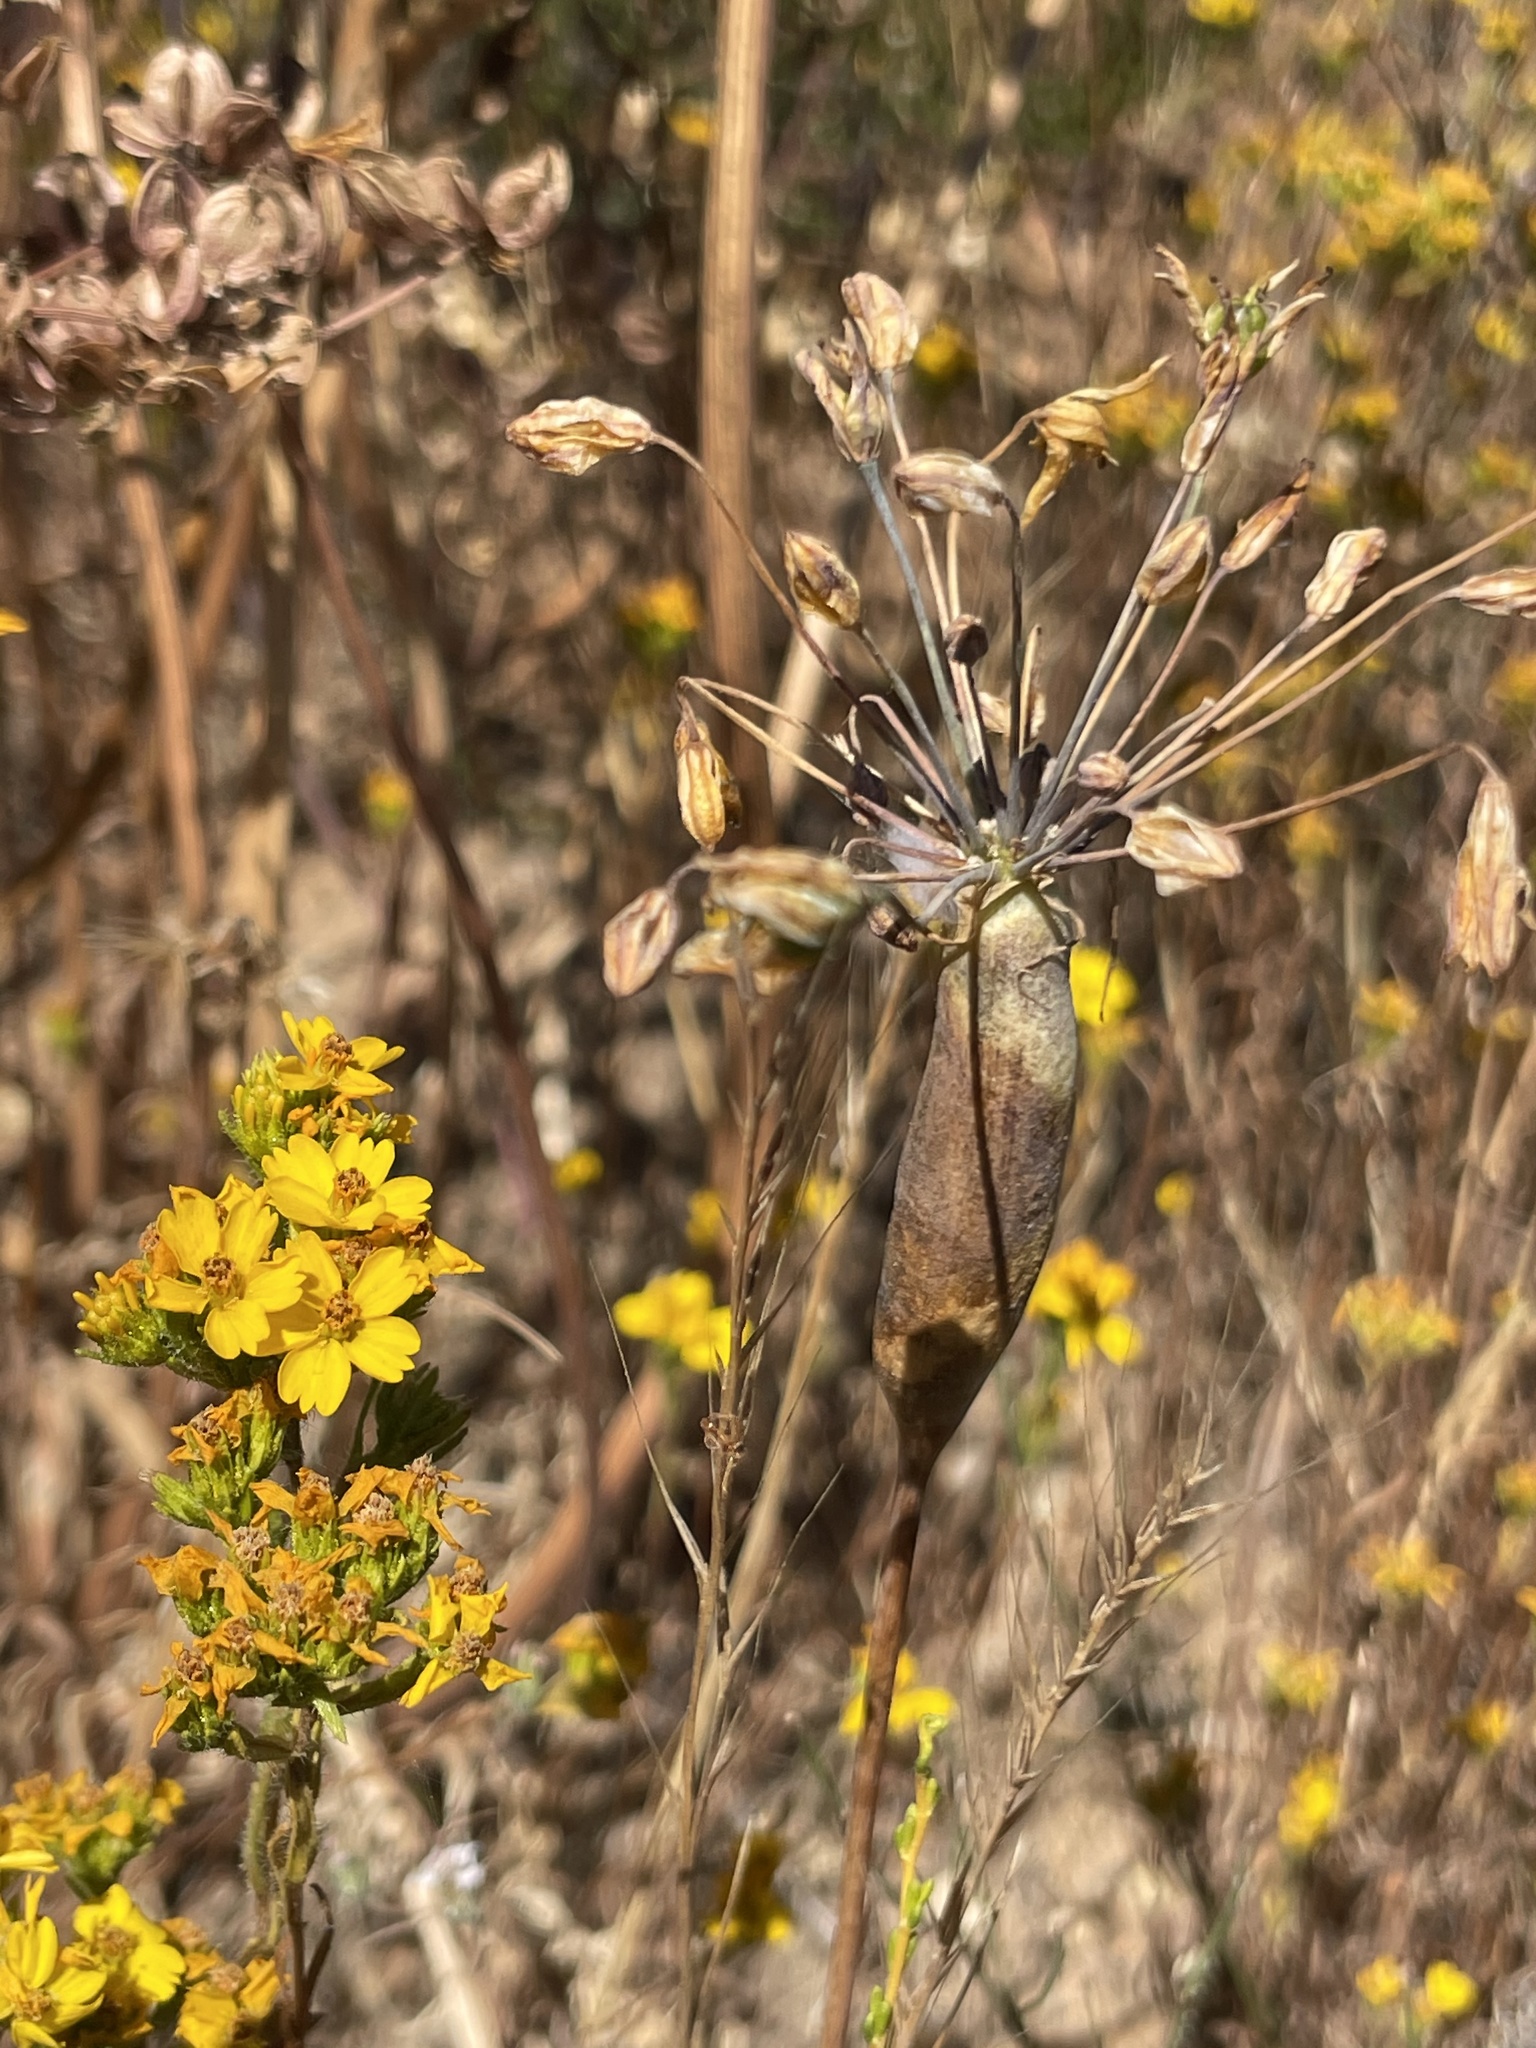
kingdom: Plantae
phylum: Tracheophyta
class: Liliopsida
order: Asparagales
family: Asparagaceae
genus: Bloomeria
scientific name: Bloomeria crocea
